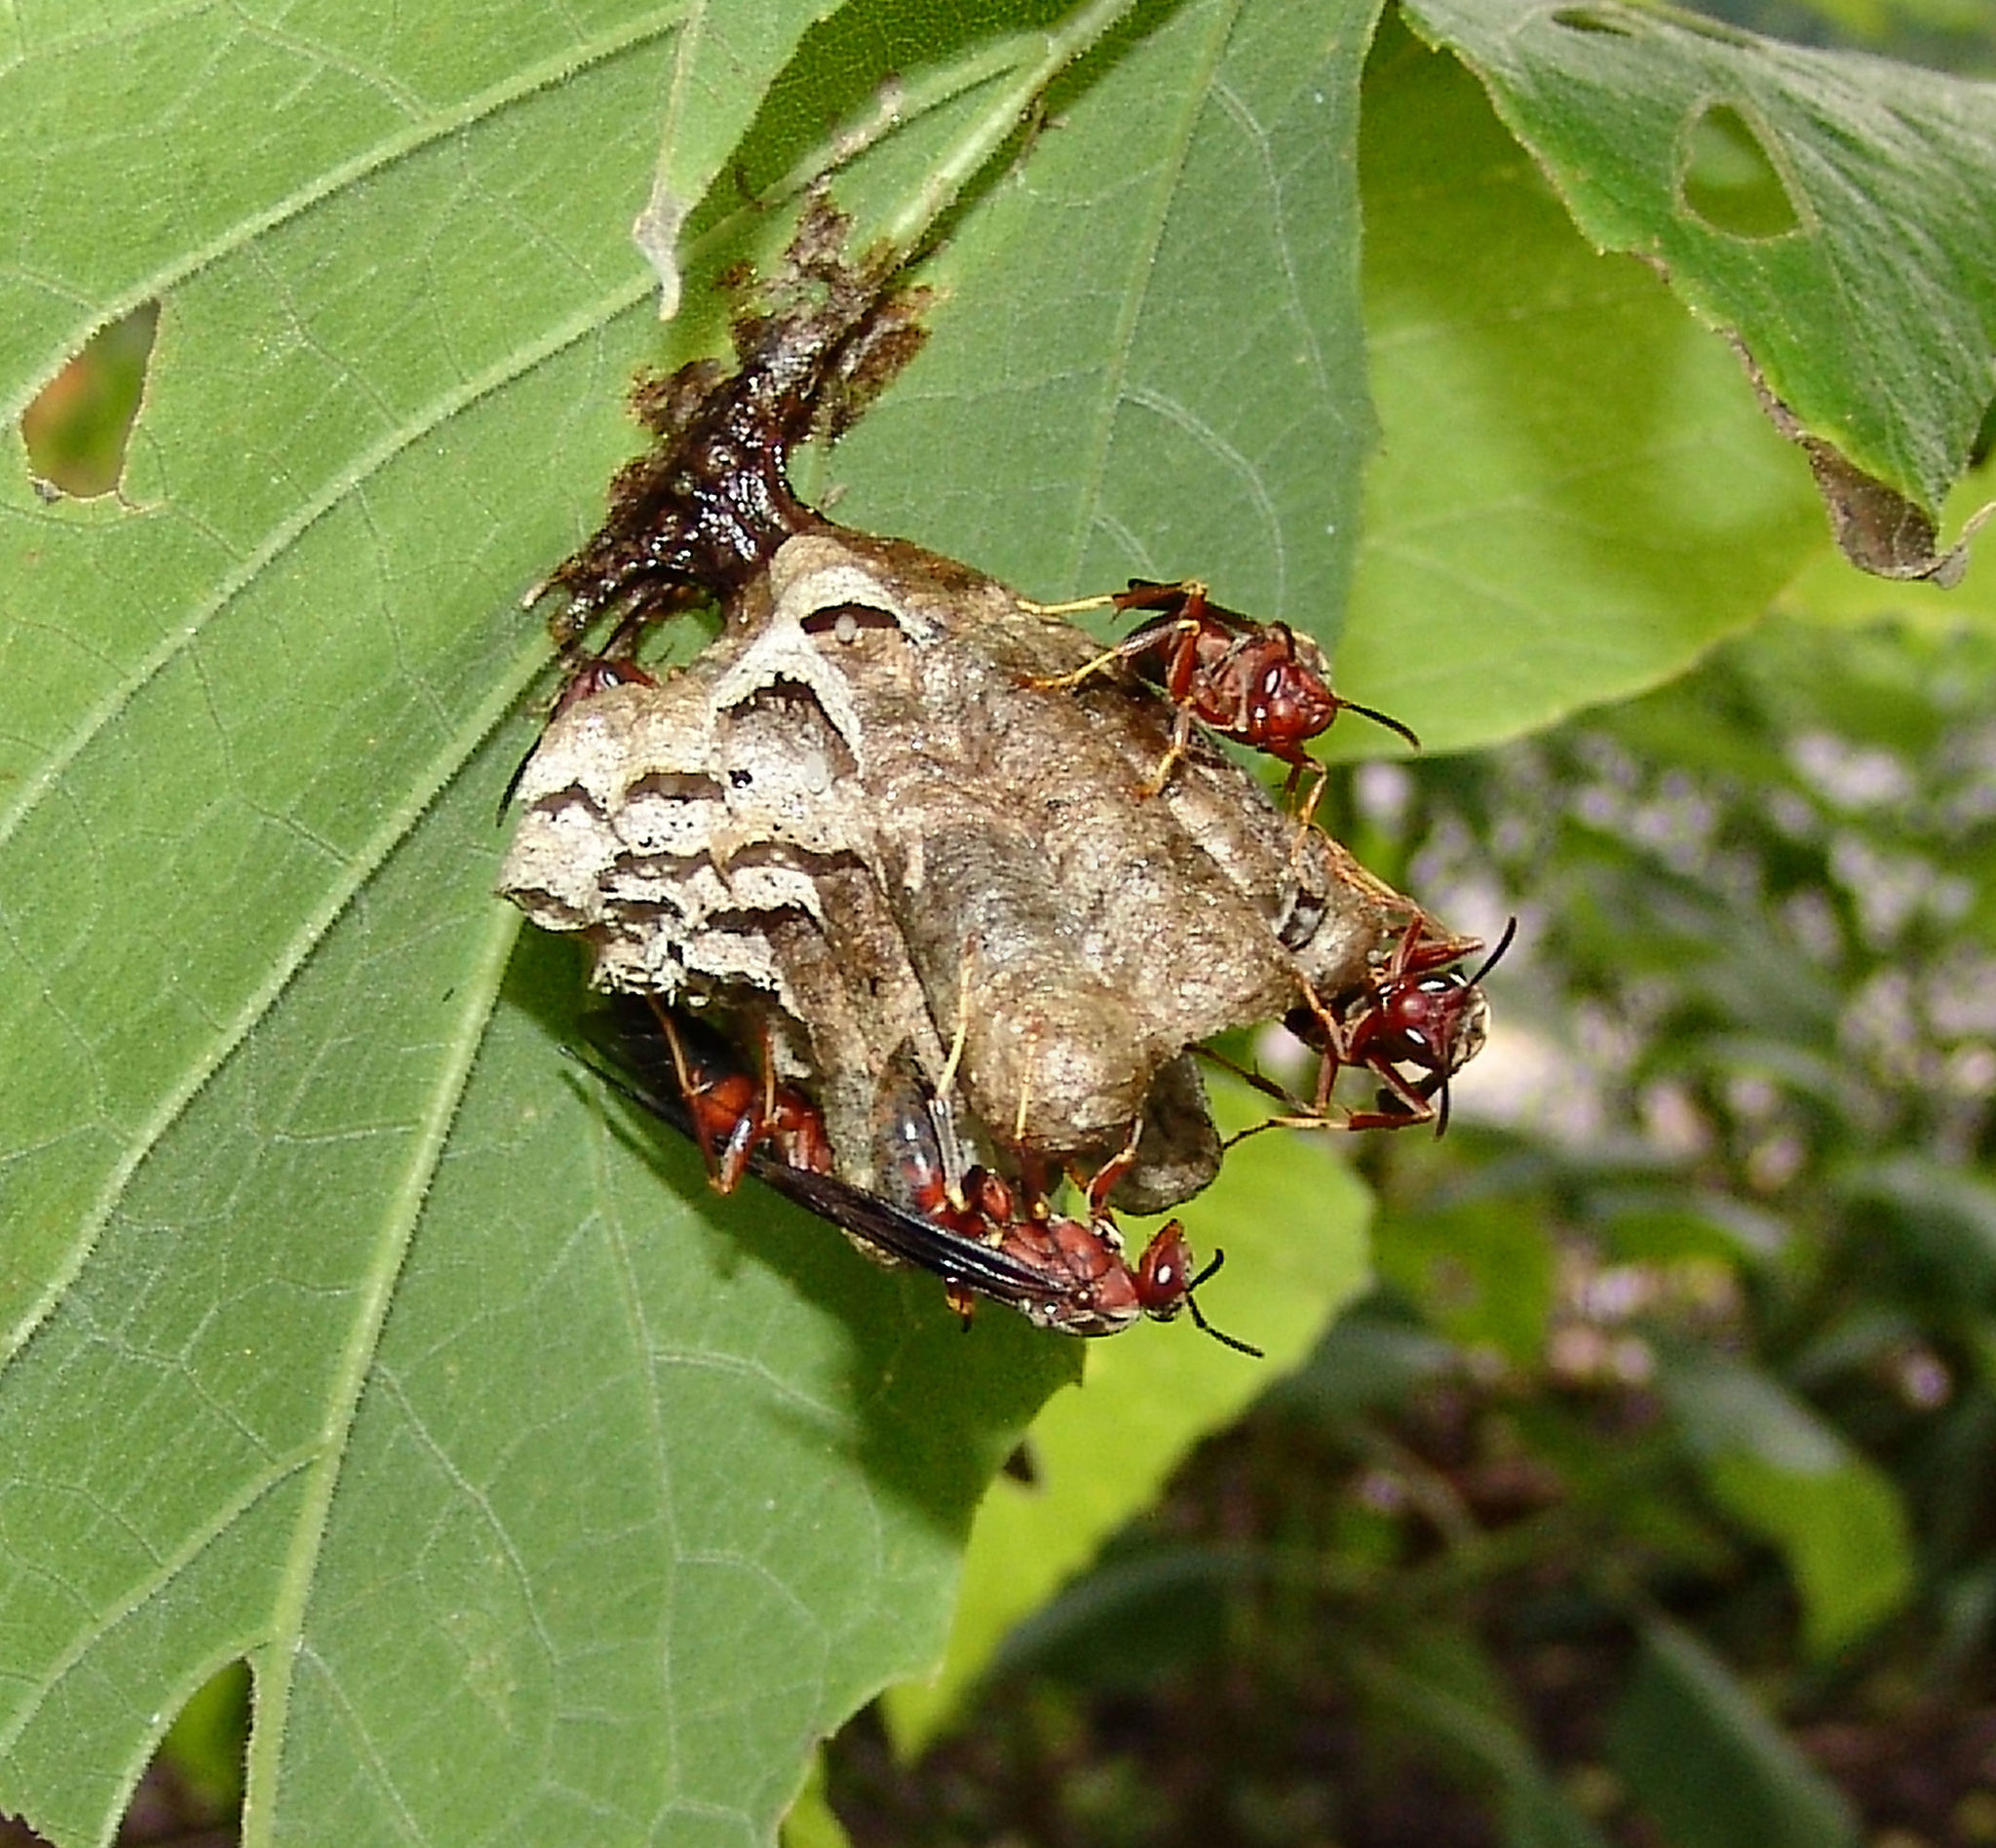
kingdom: Animalia
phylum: Arthropoda
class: Insecta
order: Hymenoptera
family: Vespidae
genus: Fuscopolistes
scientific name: Fuscopolistes
